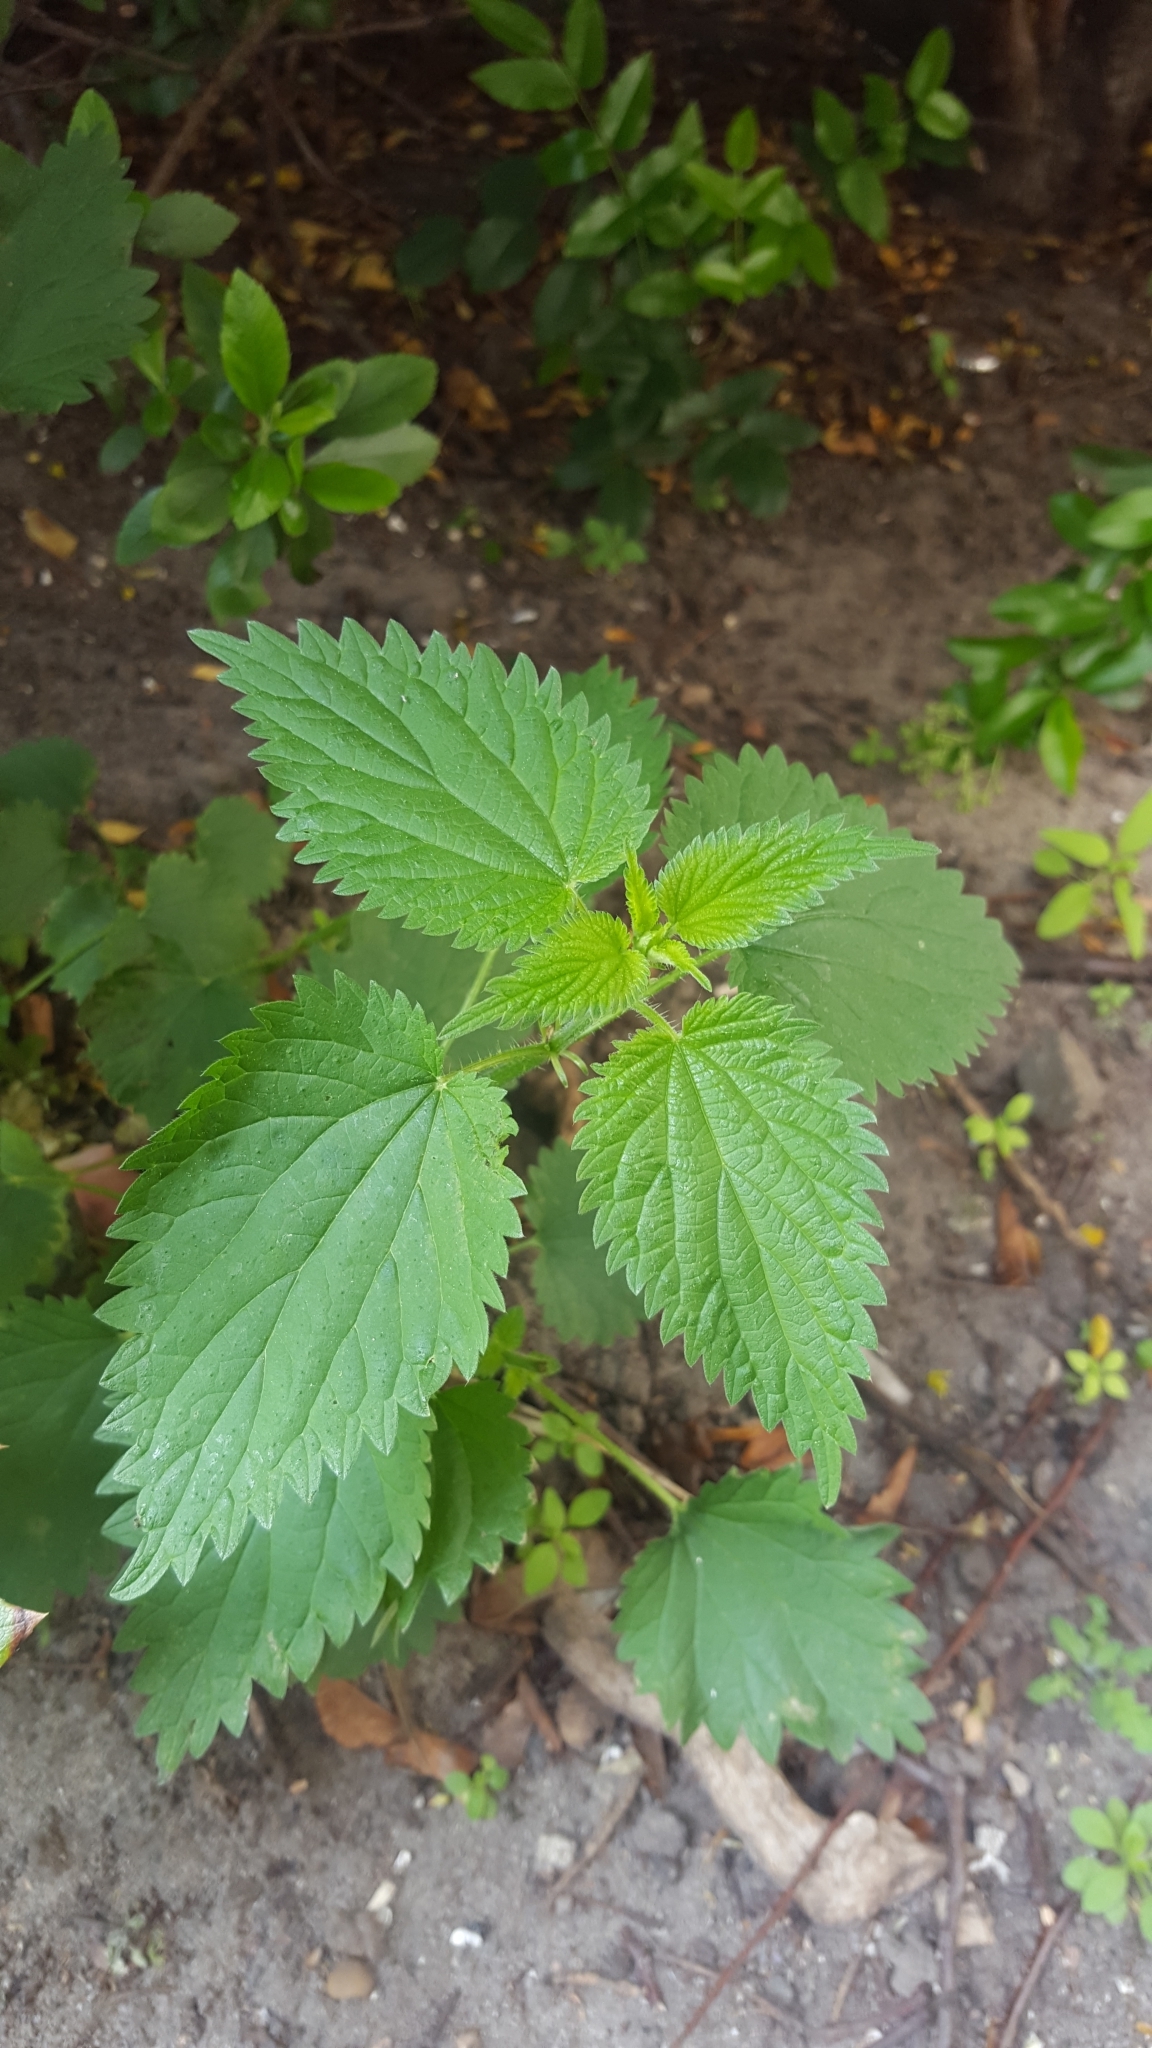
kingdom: Plantae
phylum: Tracheophyta
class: Magnoliopsida
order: Rosales
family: Urticaceae
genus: Urtica
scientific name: Urtica dioica
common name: Common nettle
